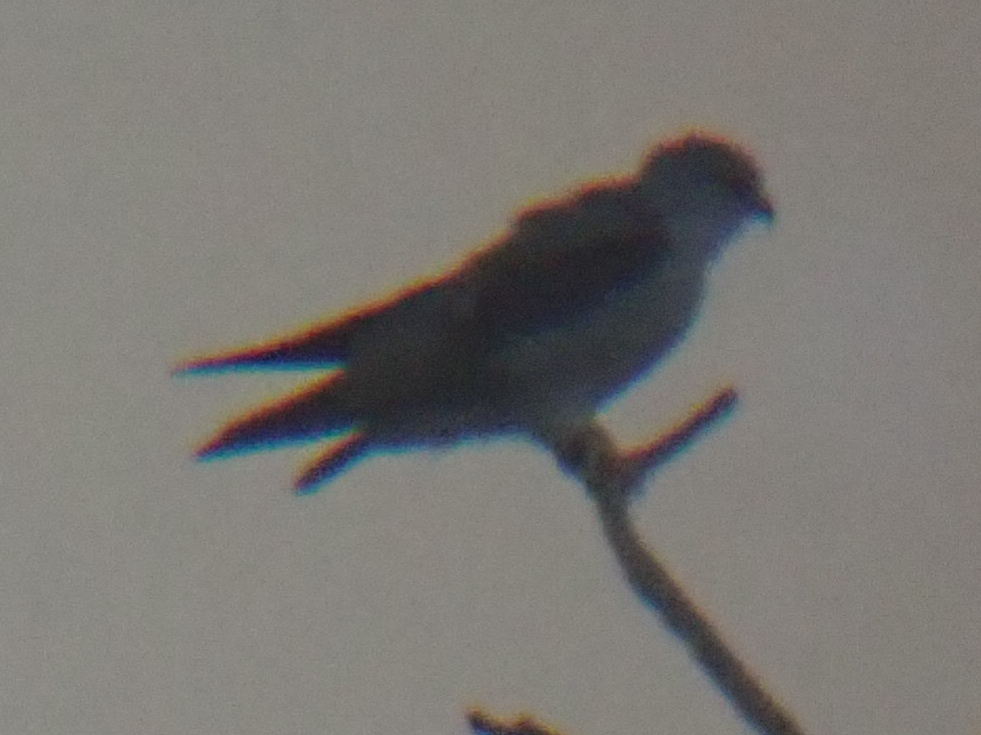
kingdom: Animalia
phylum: Chordata
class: Aves
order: Accipitriformes
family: Accipitridae
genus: Elanus
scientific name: Elanus caeruleus
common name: Black-winged kite
